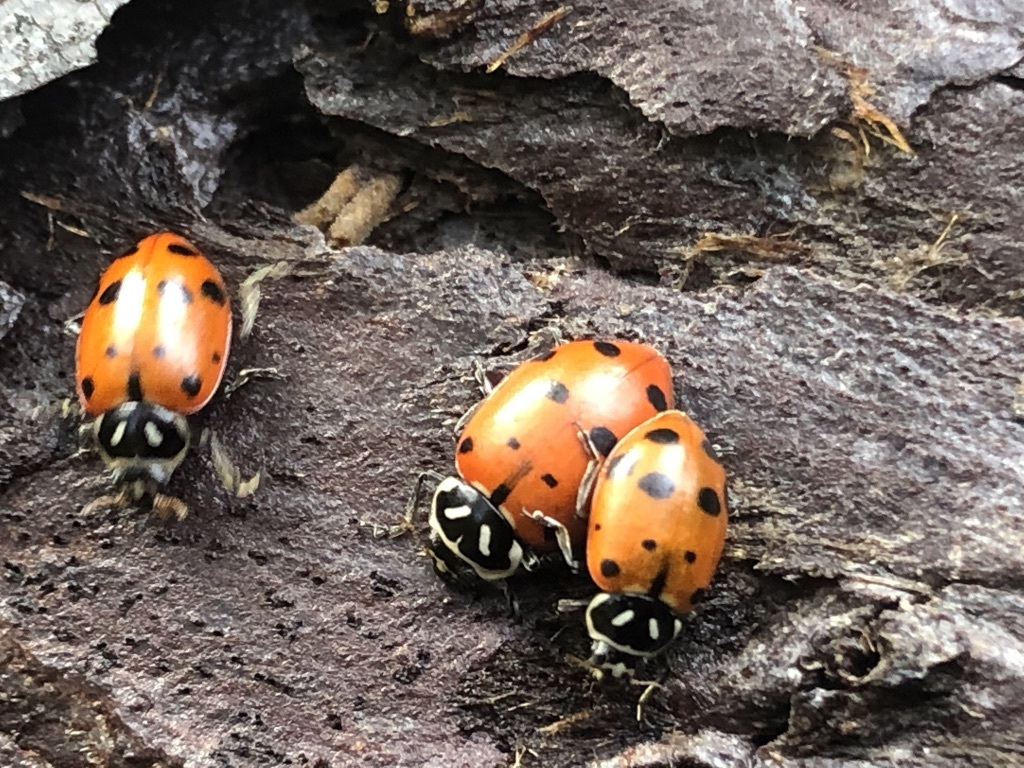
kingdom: Animalia
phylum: Arthropoda
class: Insecta
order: Coleoptera
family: Coccinellidae
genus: Hippodamia
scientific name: Hippodamia convergens
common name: Convergent lady beetle
